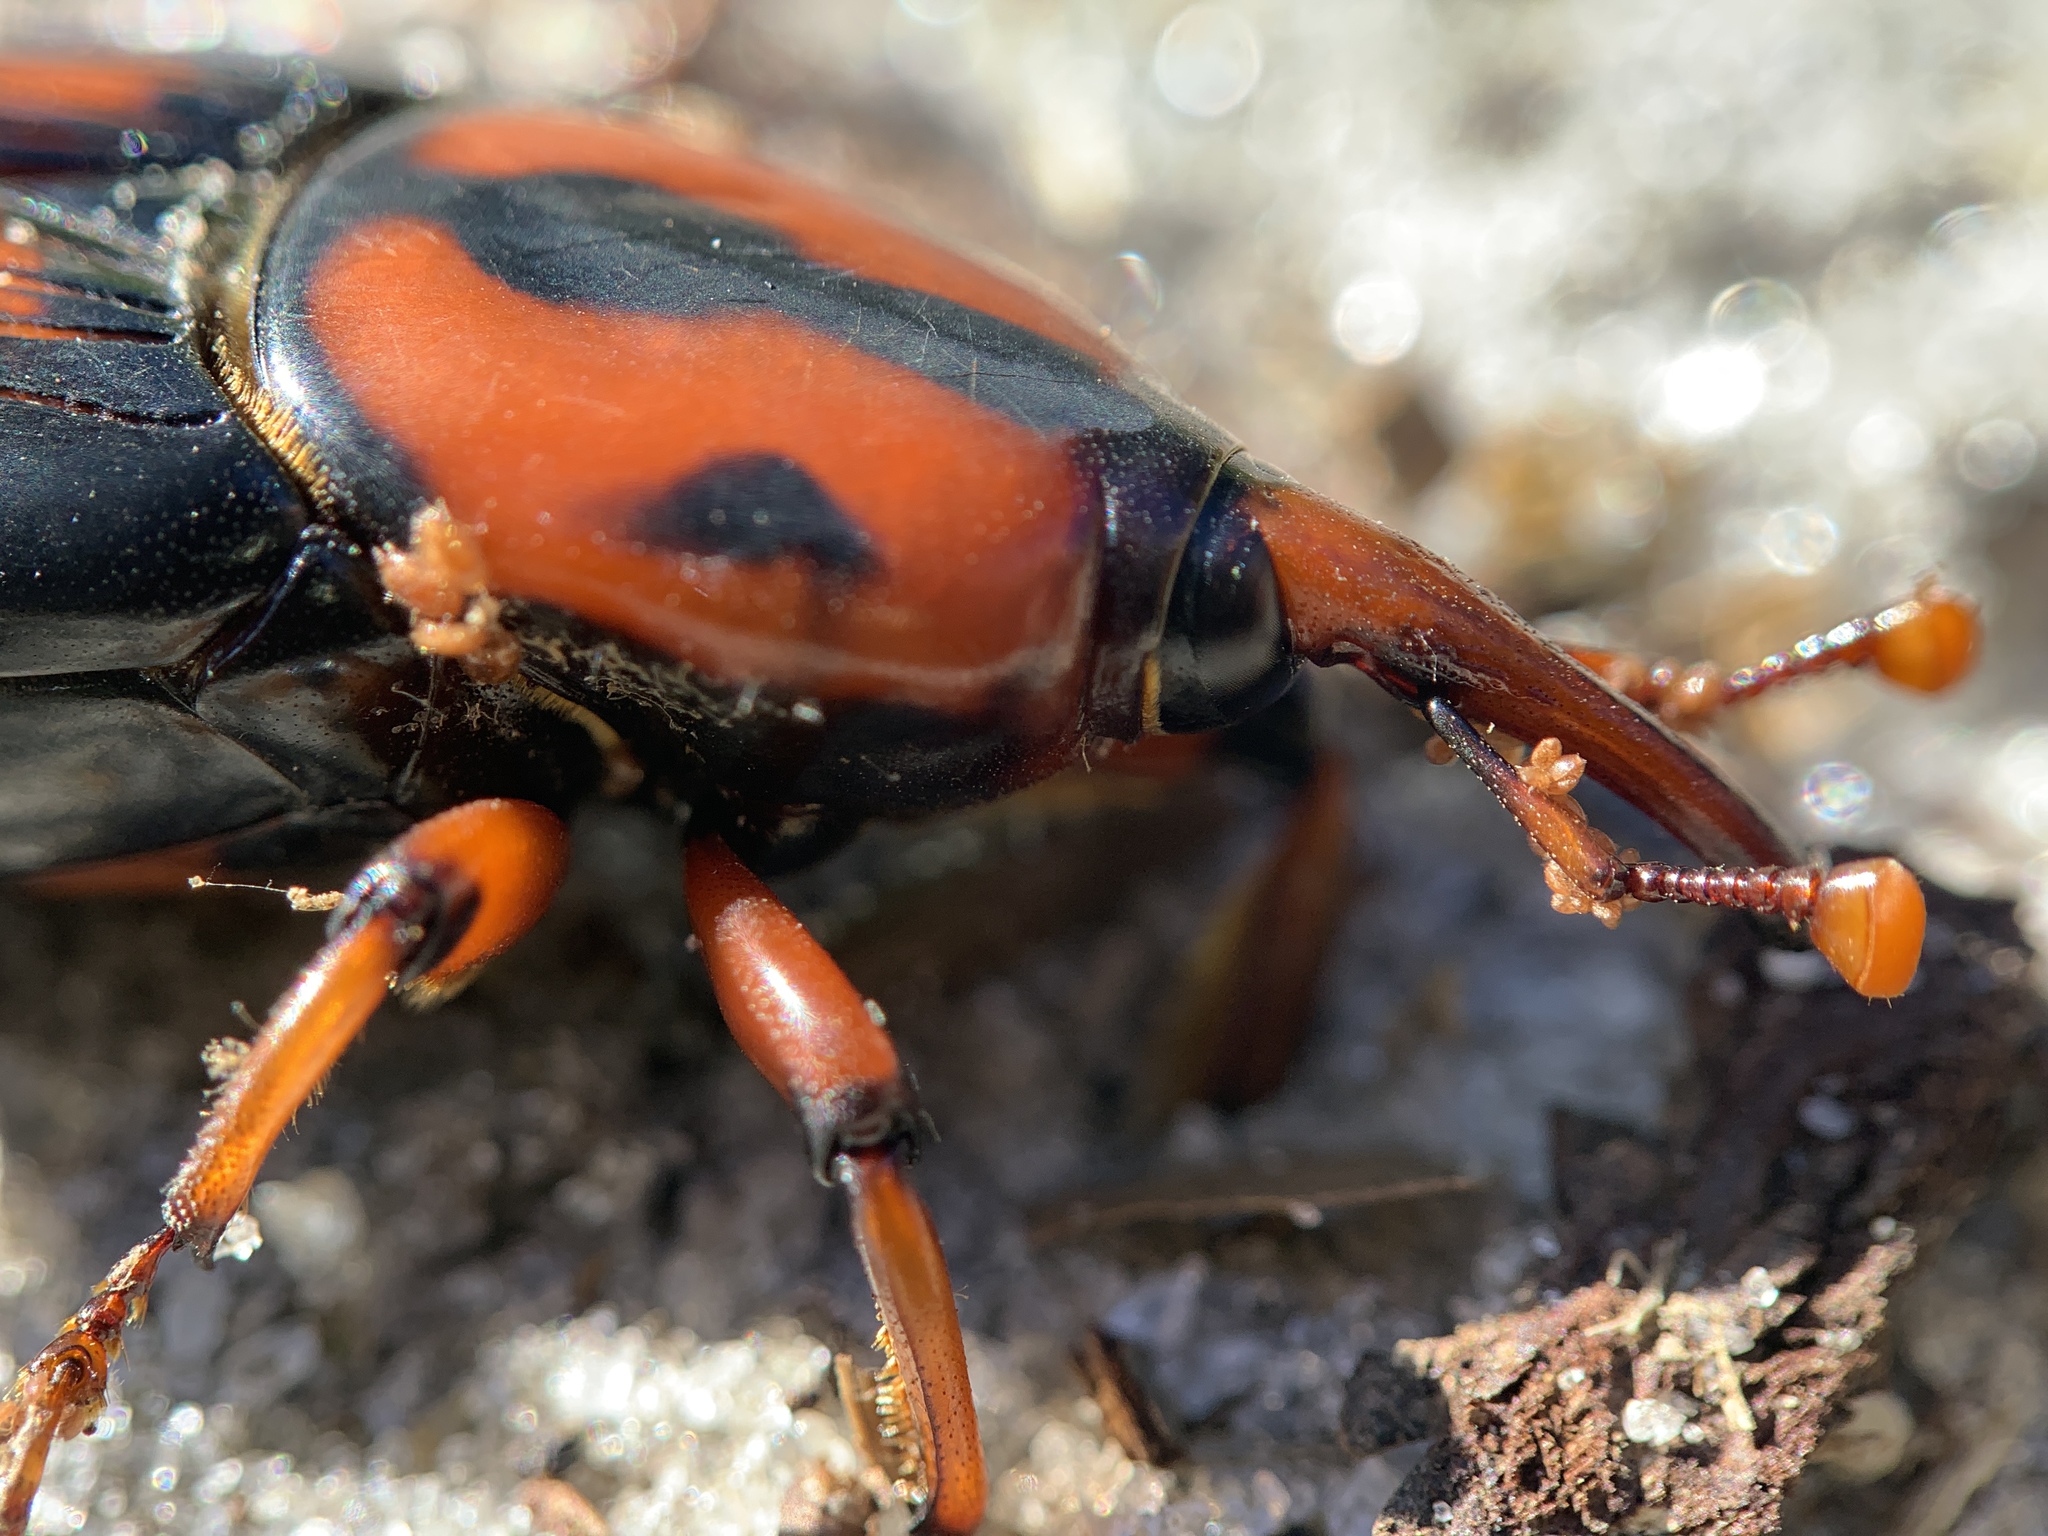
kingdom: Animalia
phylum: Arthropoda
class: Insecta
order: Coleoptera
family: Dryophthoridae
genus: Rhynchophorus
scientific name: Rhynchophorus cruentatus
